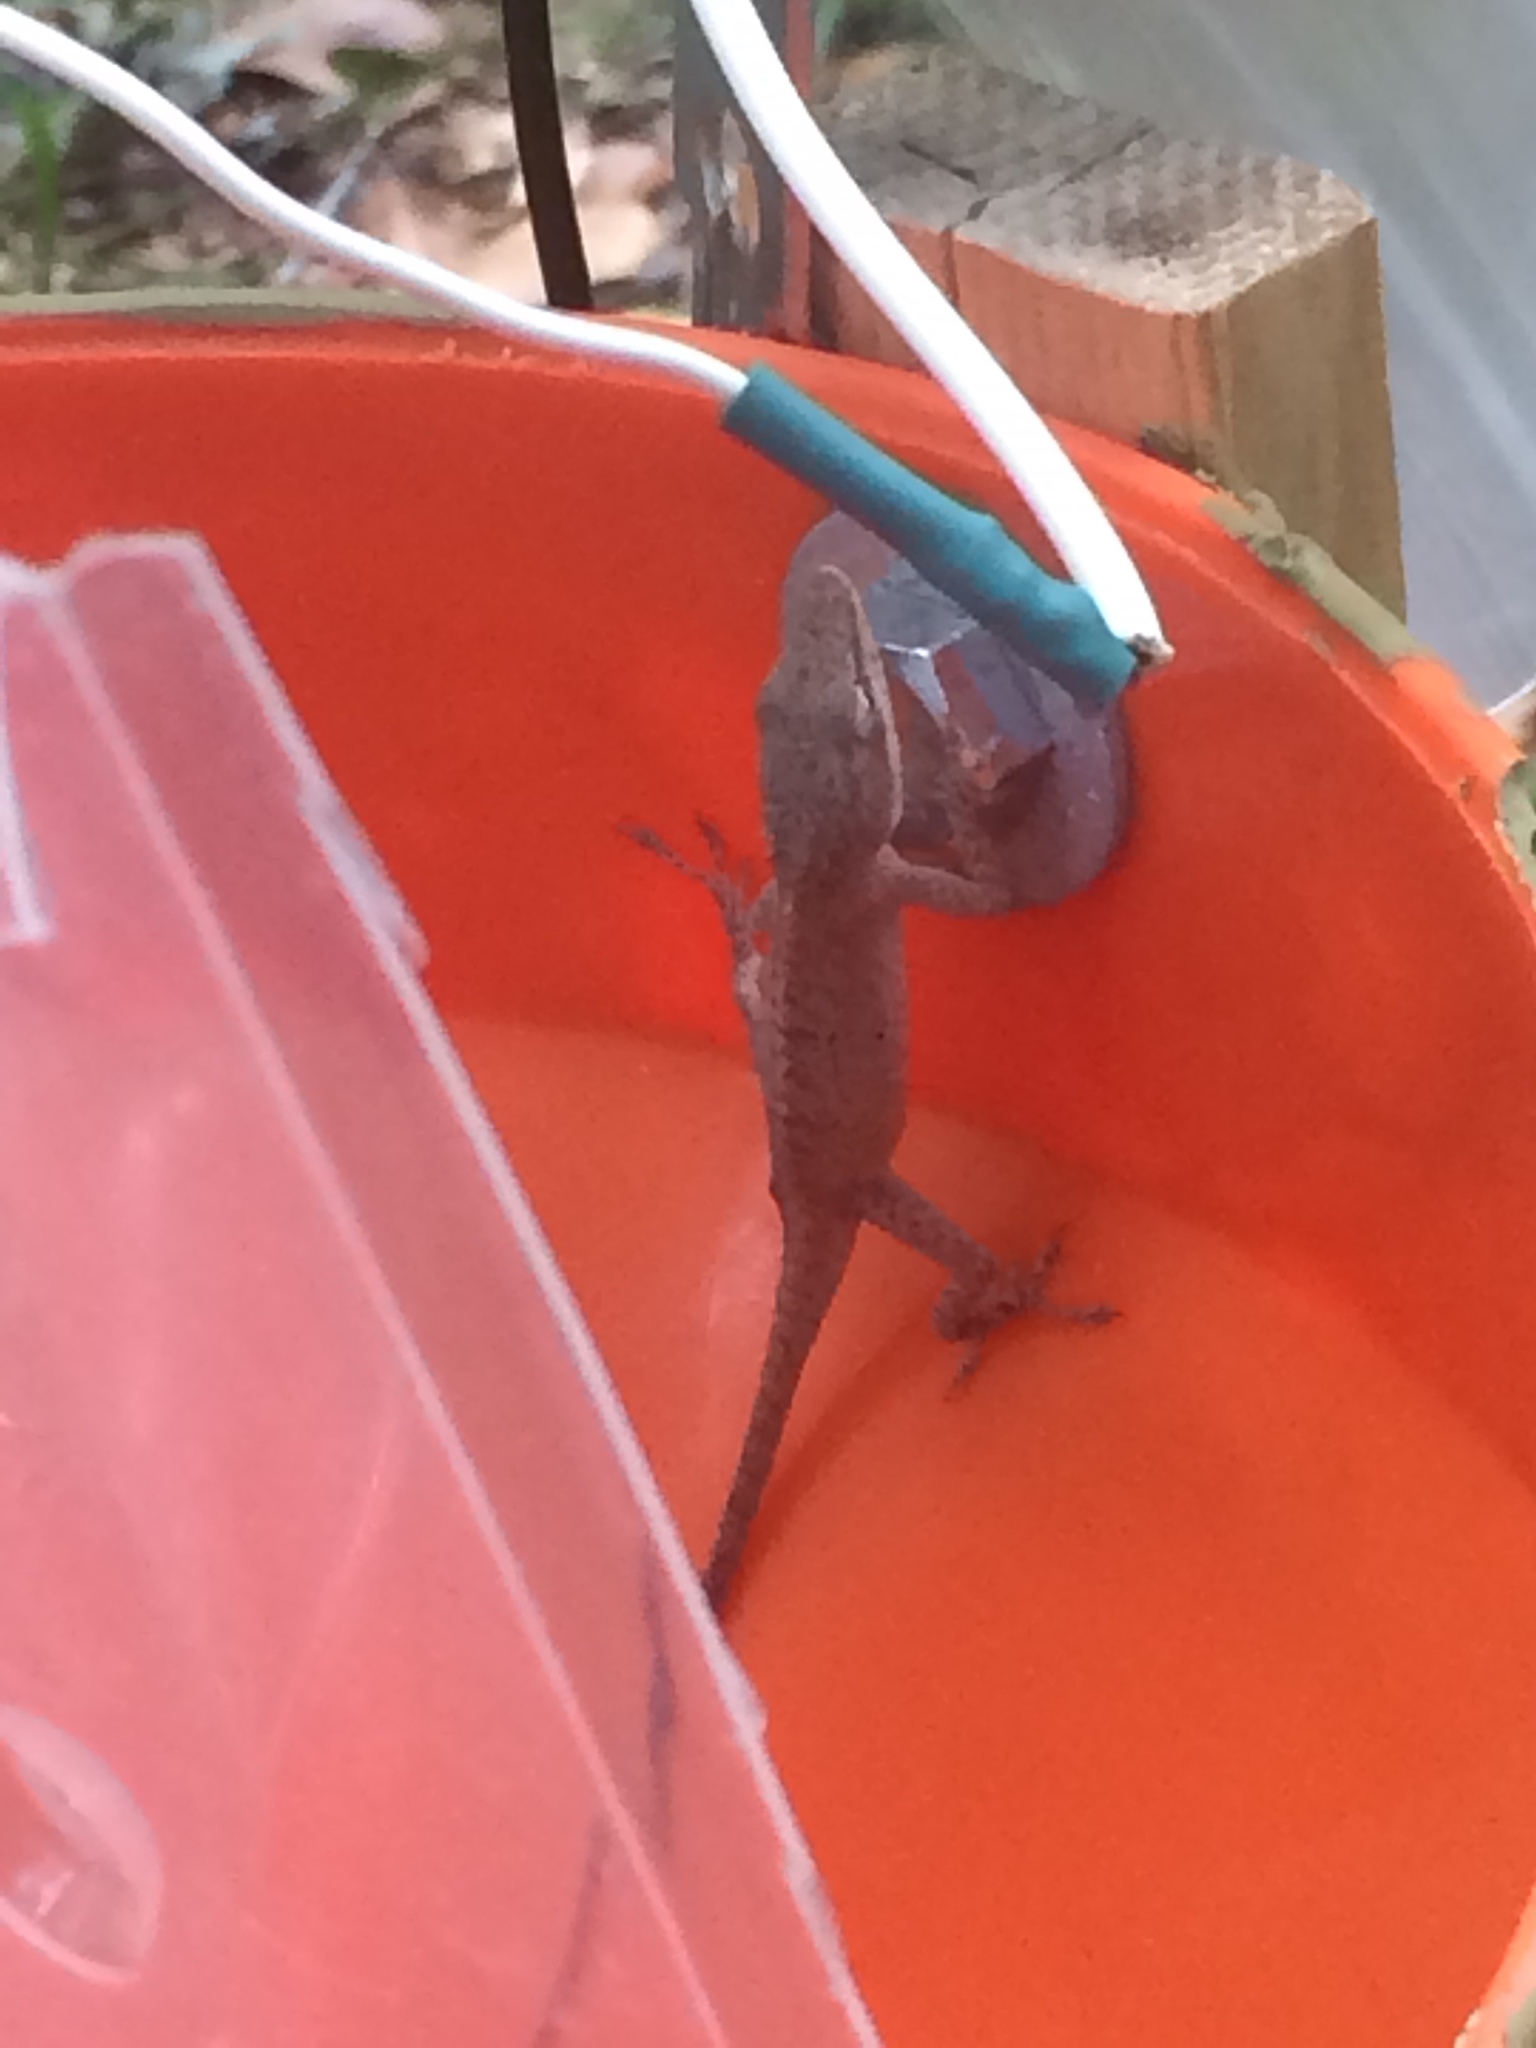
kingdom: Animalia
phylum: Chordata
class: Squamata
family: Dactyloidae
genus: Anolis
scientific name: Anolis carolinensis
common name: Green anole
